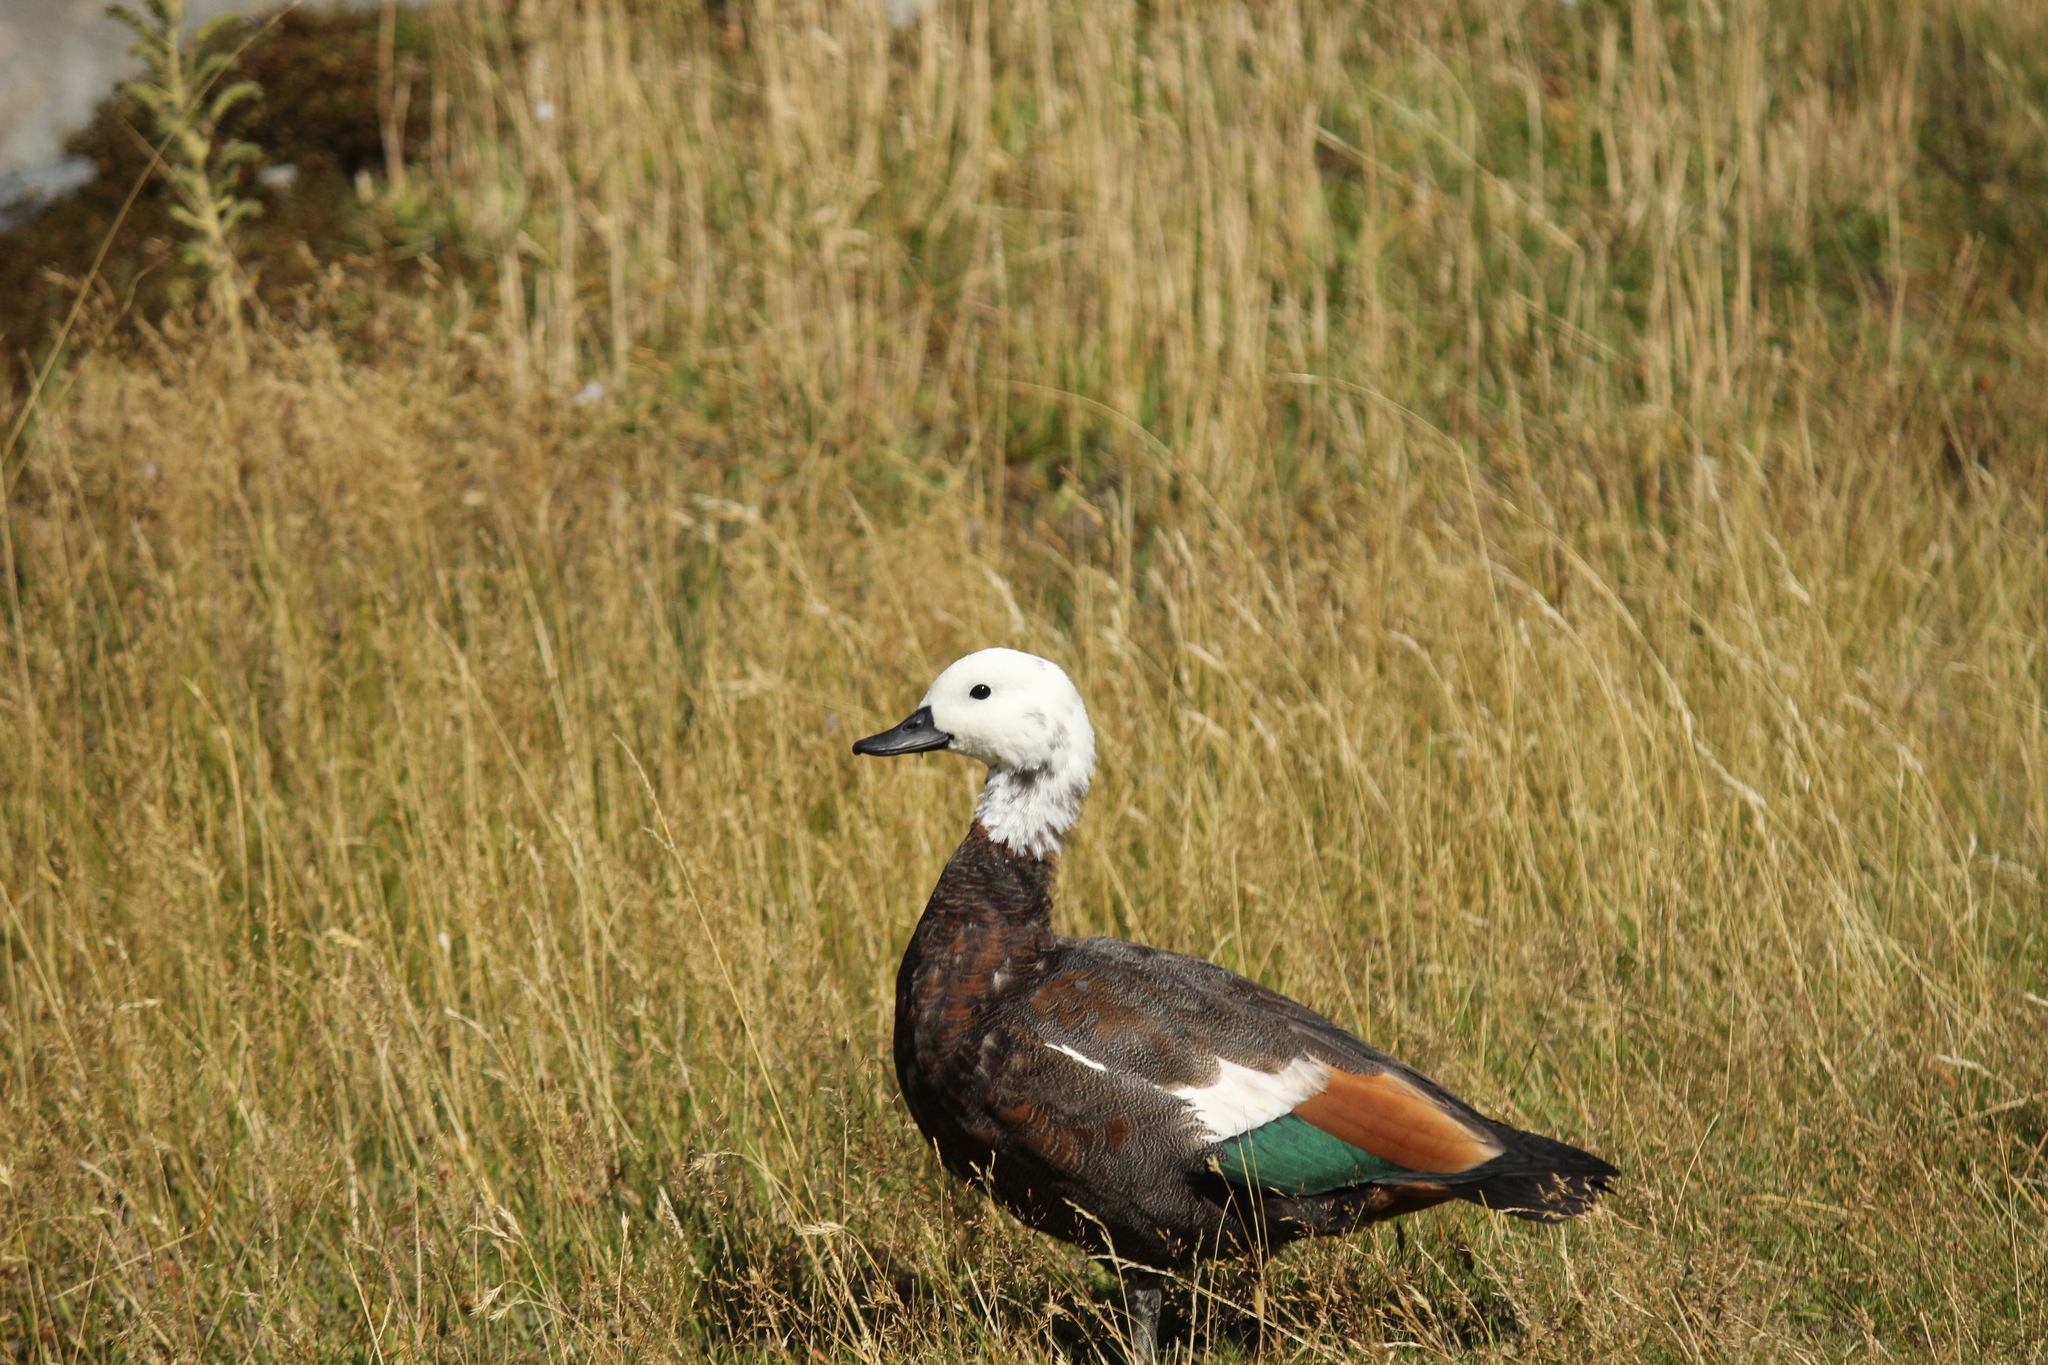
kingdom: Animalia
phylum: Chordata
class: Aves
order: Anseriformes
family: Anatidae
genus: Tadorna
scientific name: Tadorna variegata
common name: Paradise shelduck
